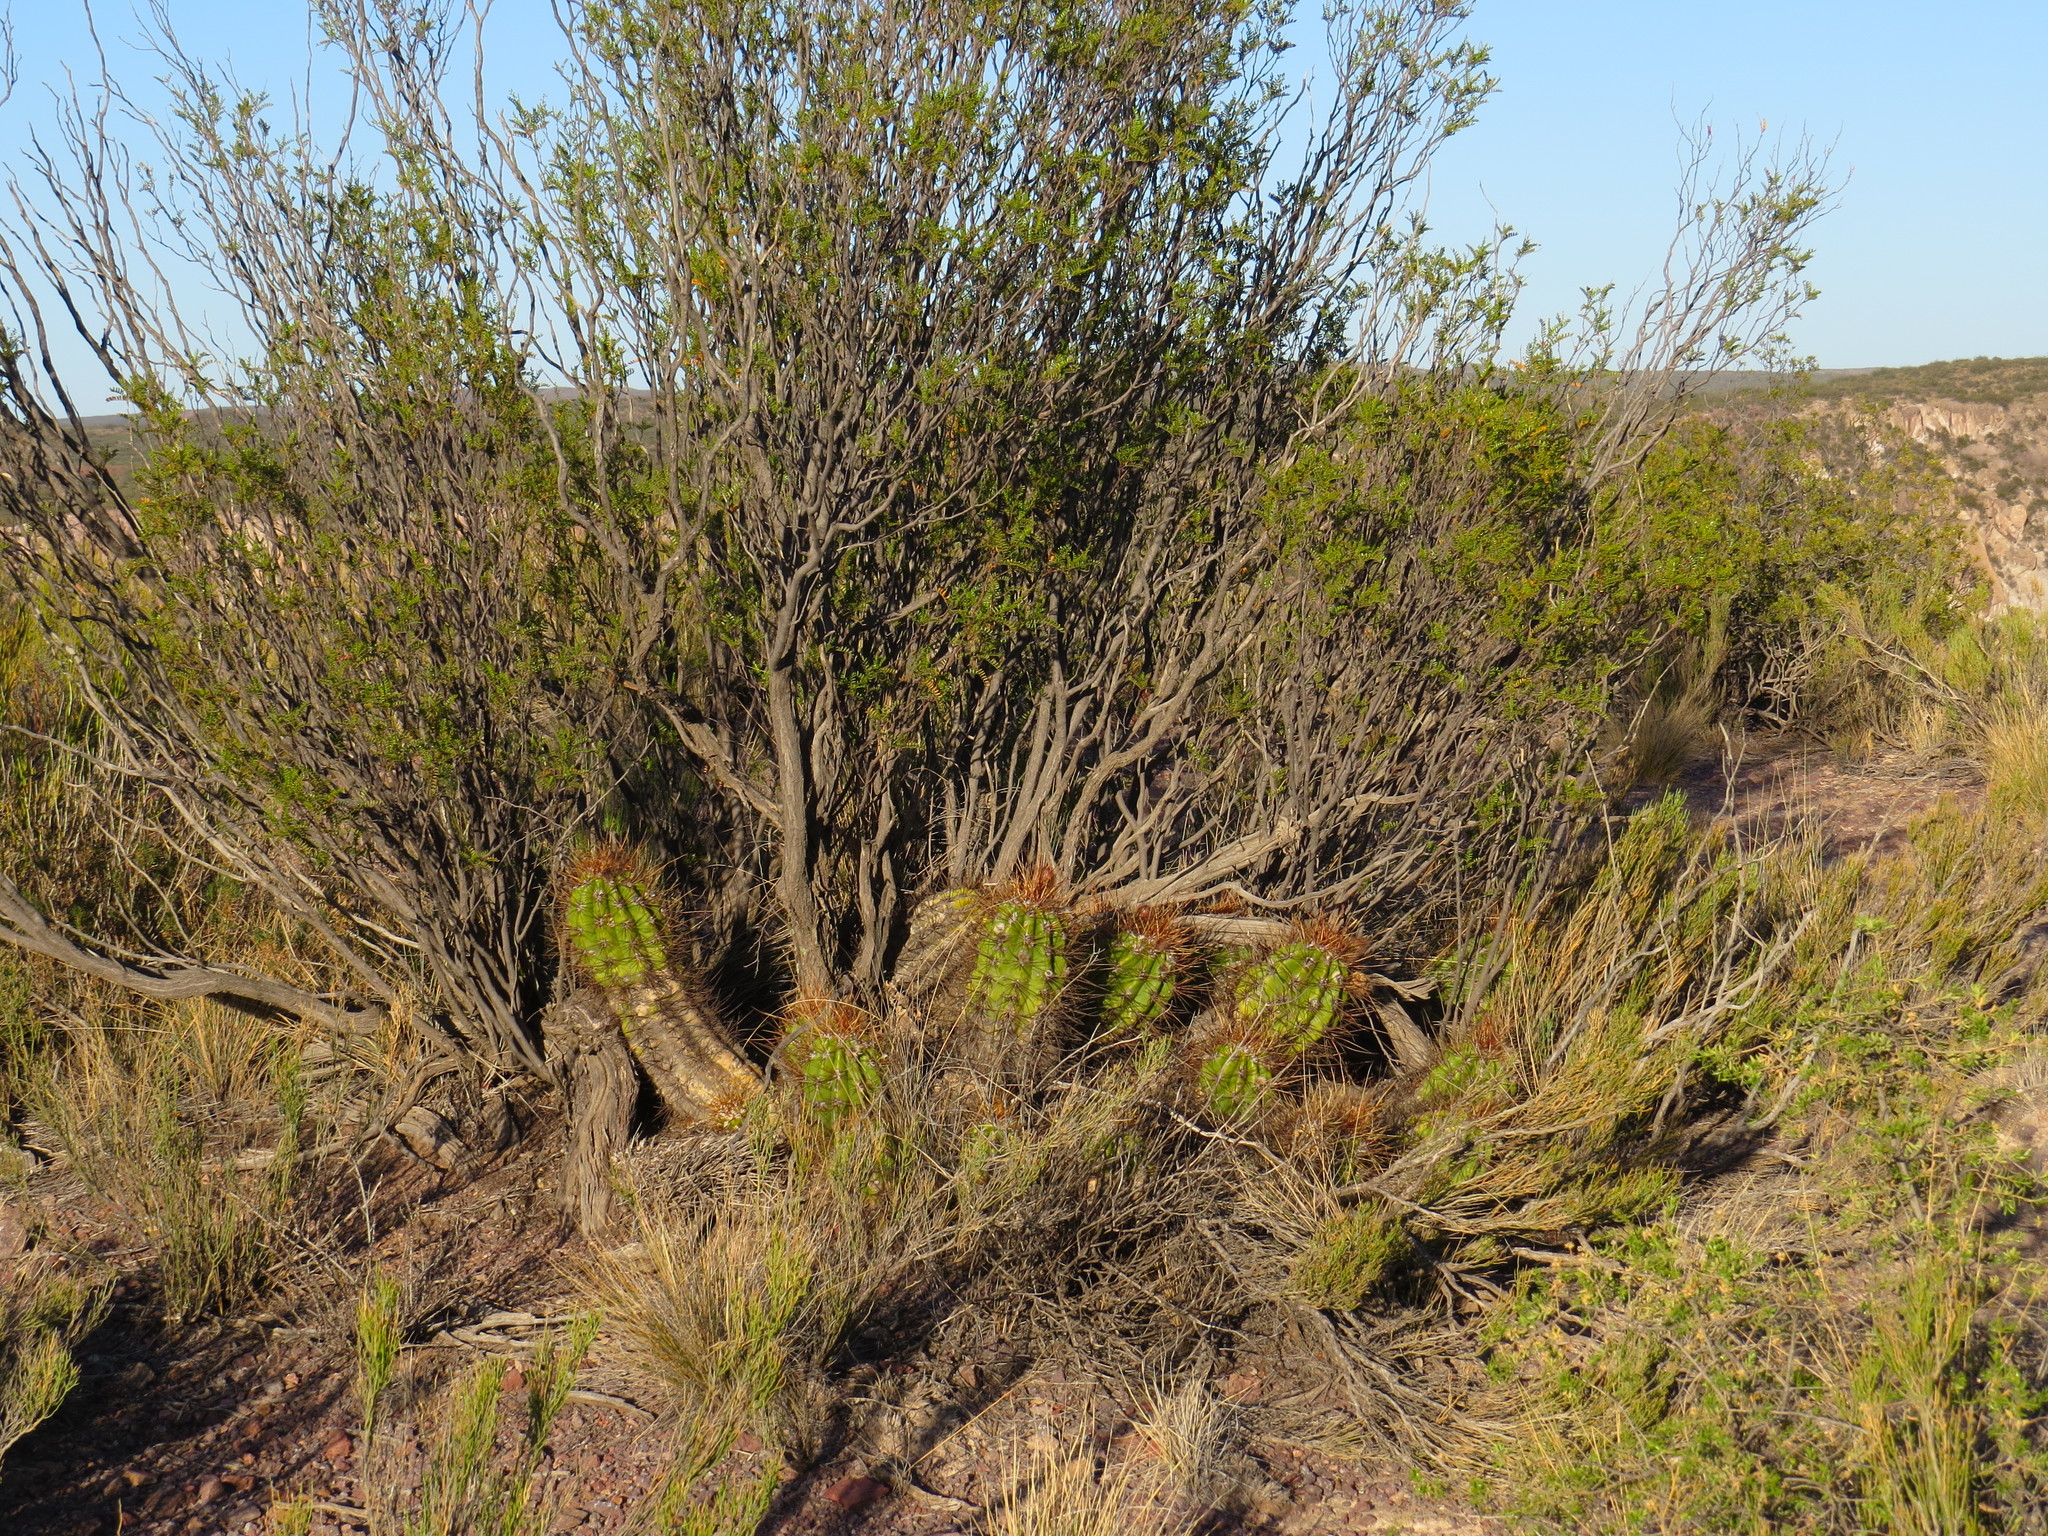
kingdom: Plantae
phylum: Tracheophyta
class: Magnoliopsida
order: Caryophyllales
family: Cactaceae
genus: Soehrensia
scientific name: Soehrensia candicans
